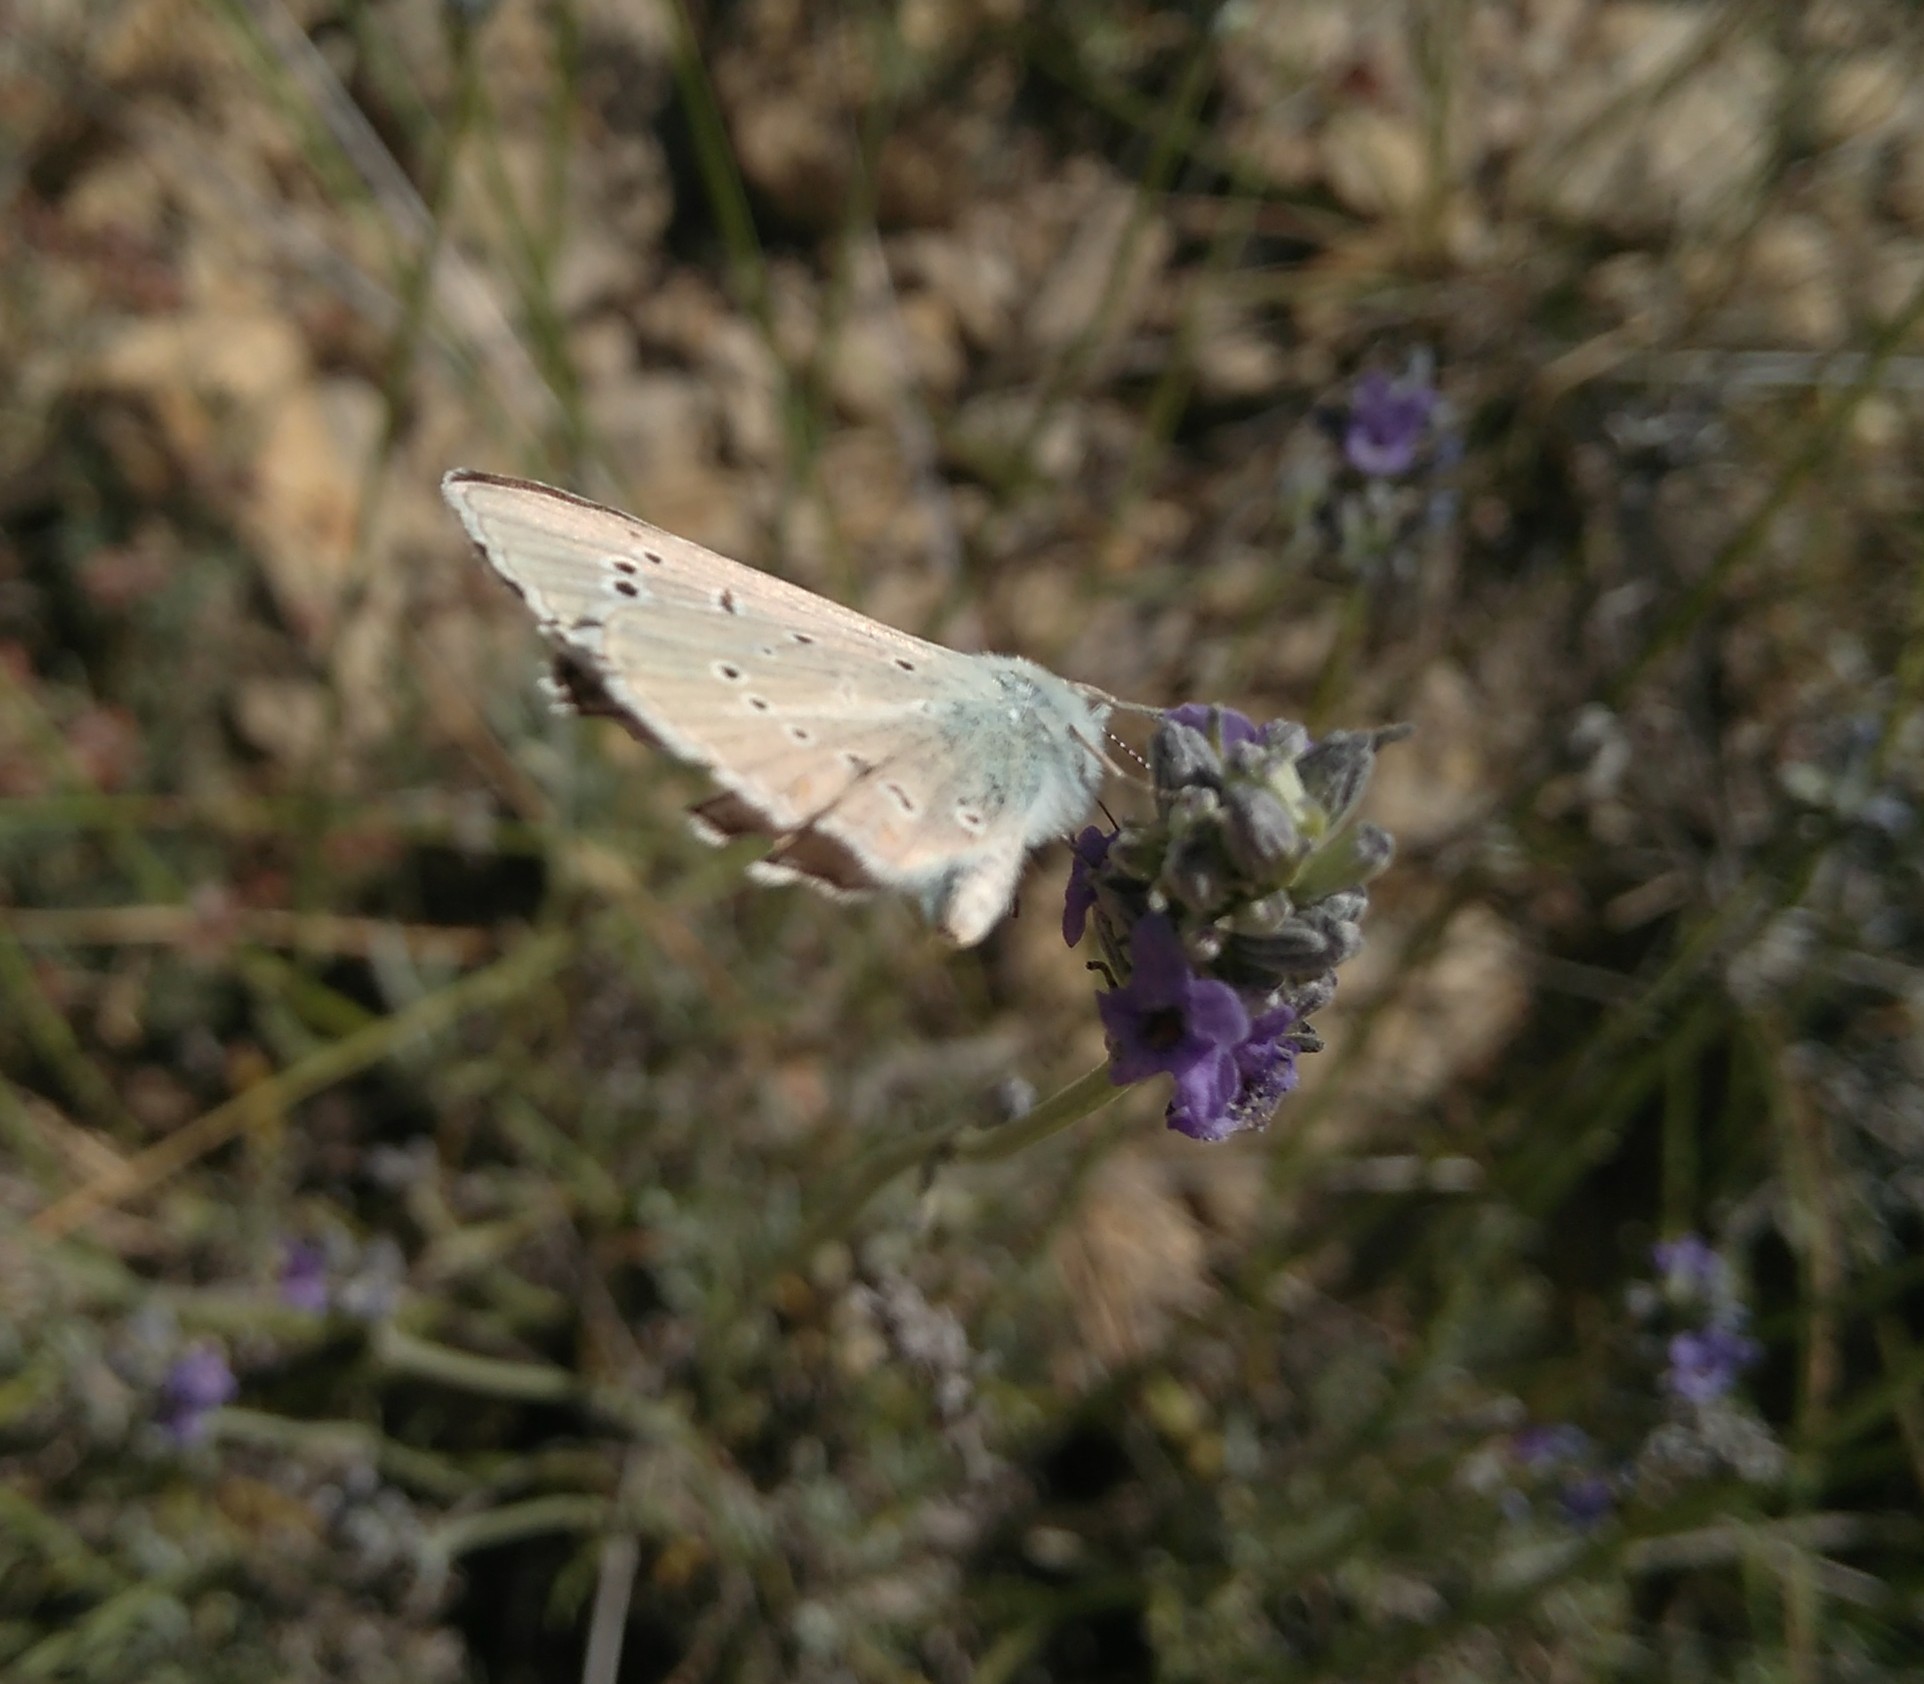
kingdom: Animalia
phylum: Arthropoda
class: Insecta
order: Lepidoptera
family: Lycaenidae
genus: Agrodiaetus
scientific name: Agrodiaetus dolus
